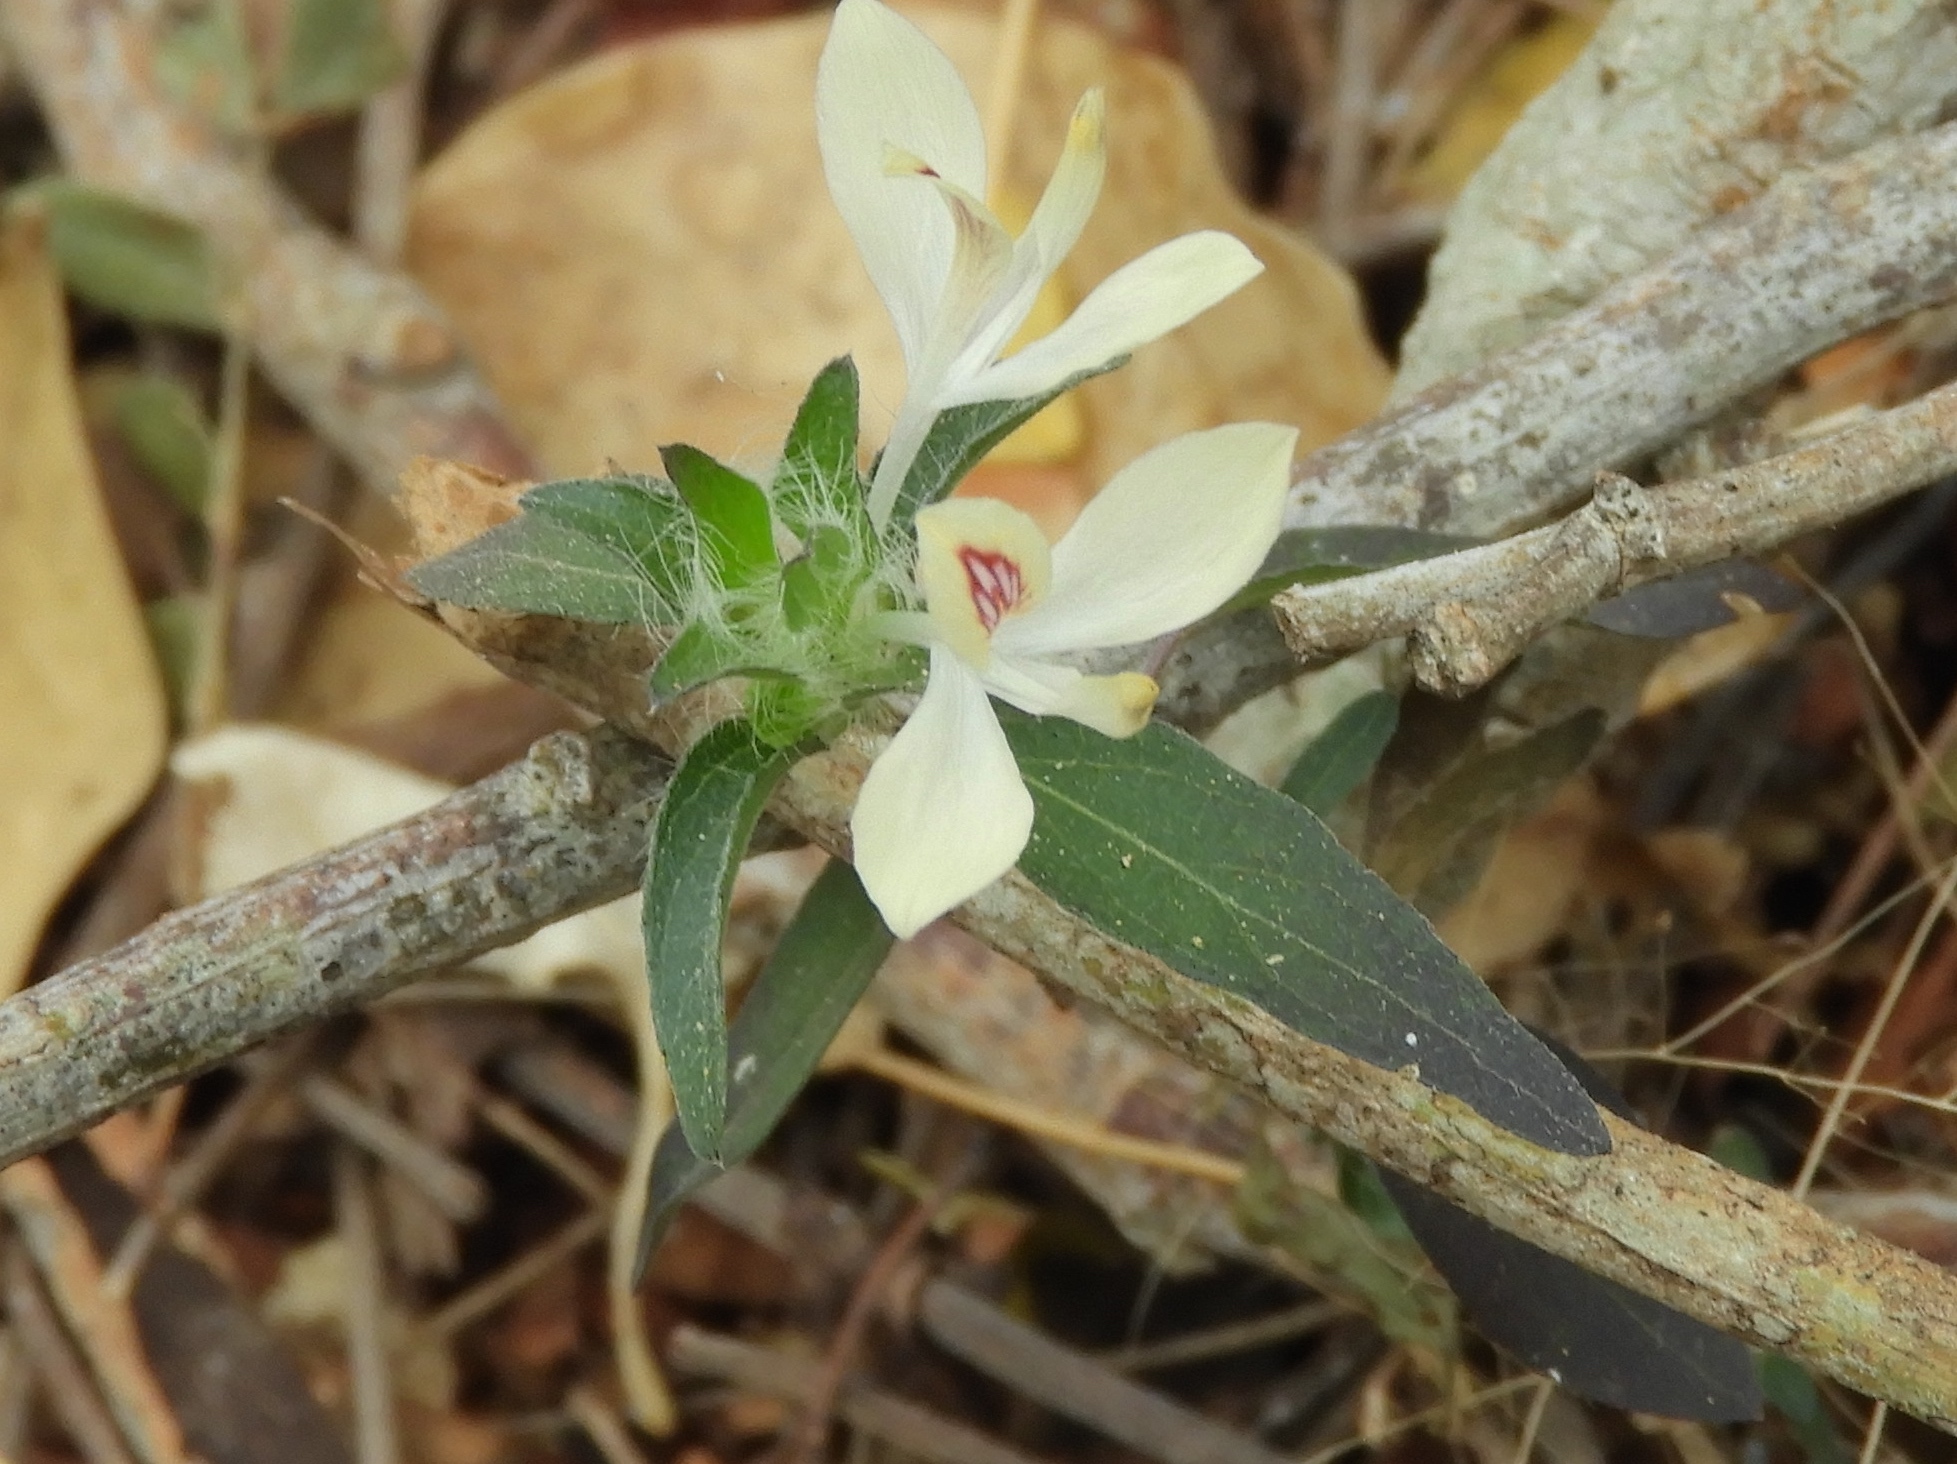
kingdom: Plantae
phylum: Tracheophyta
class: Magnoliopsida
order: Lamiales
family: Acanthaceae
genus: Carlowrightia
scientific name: Carlowrightia arizonica
